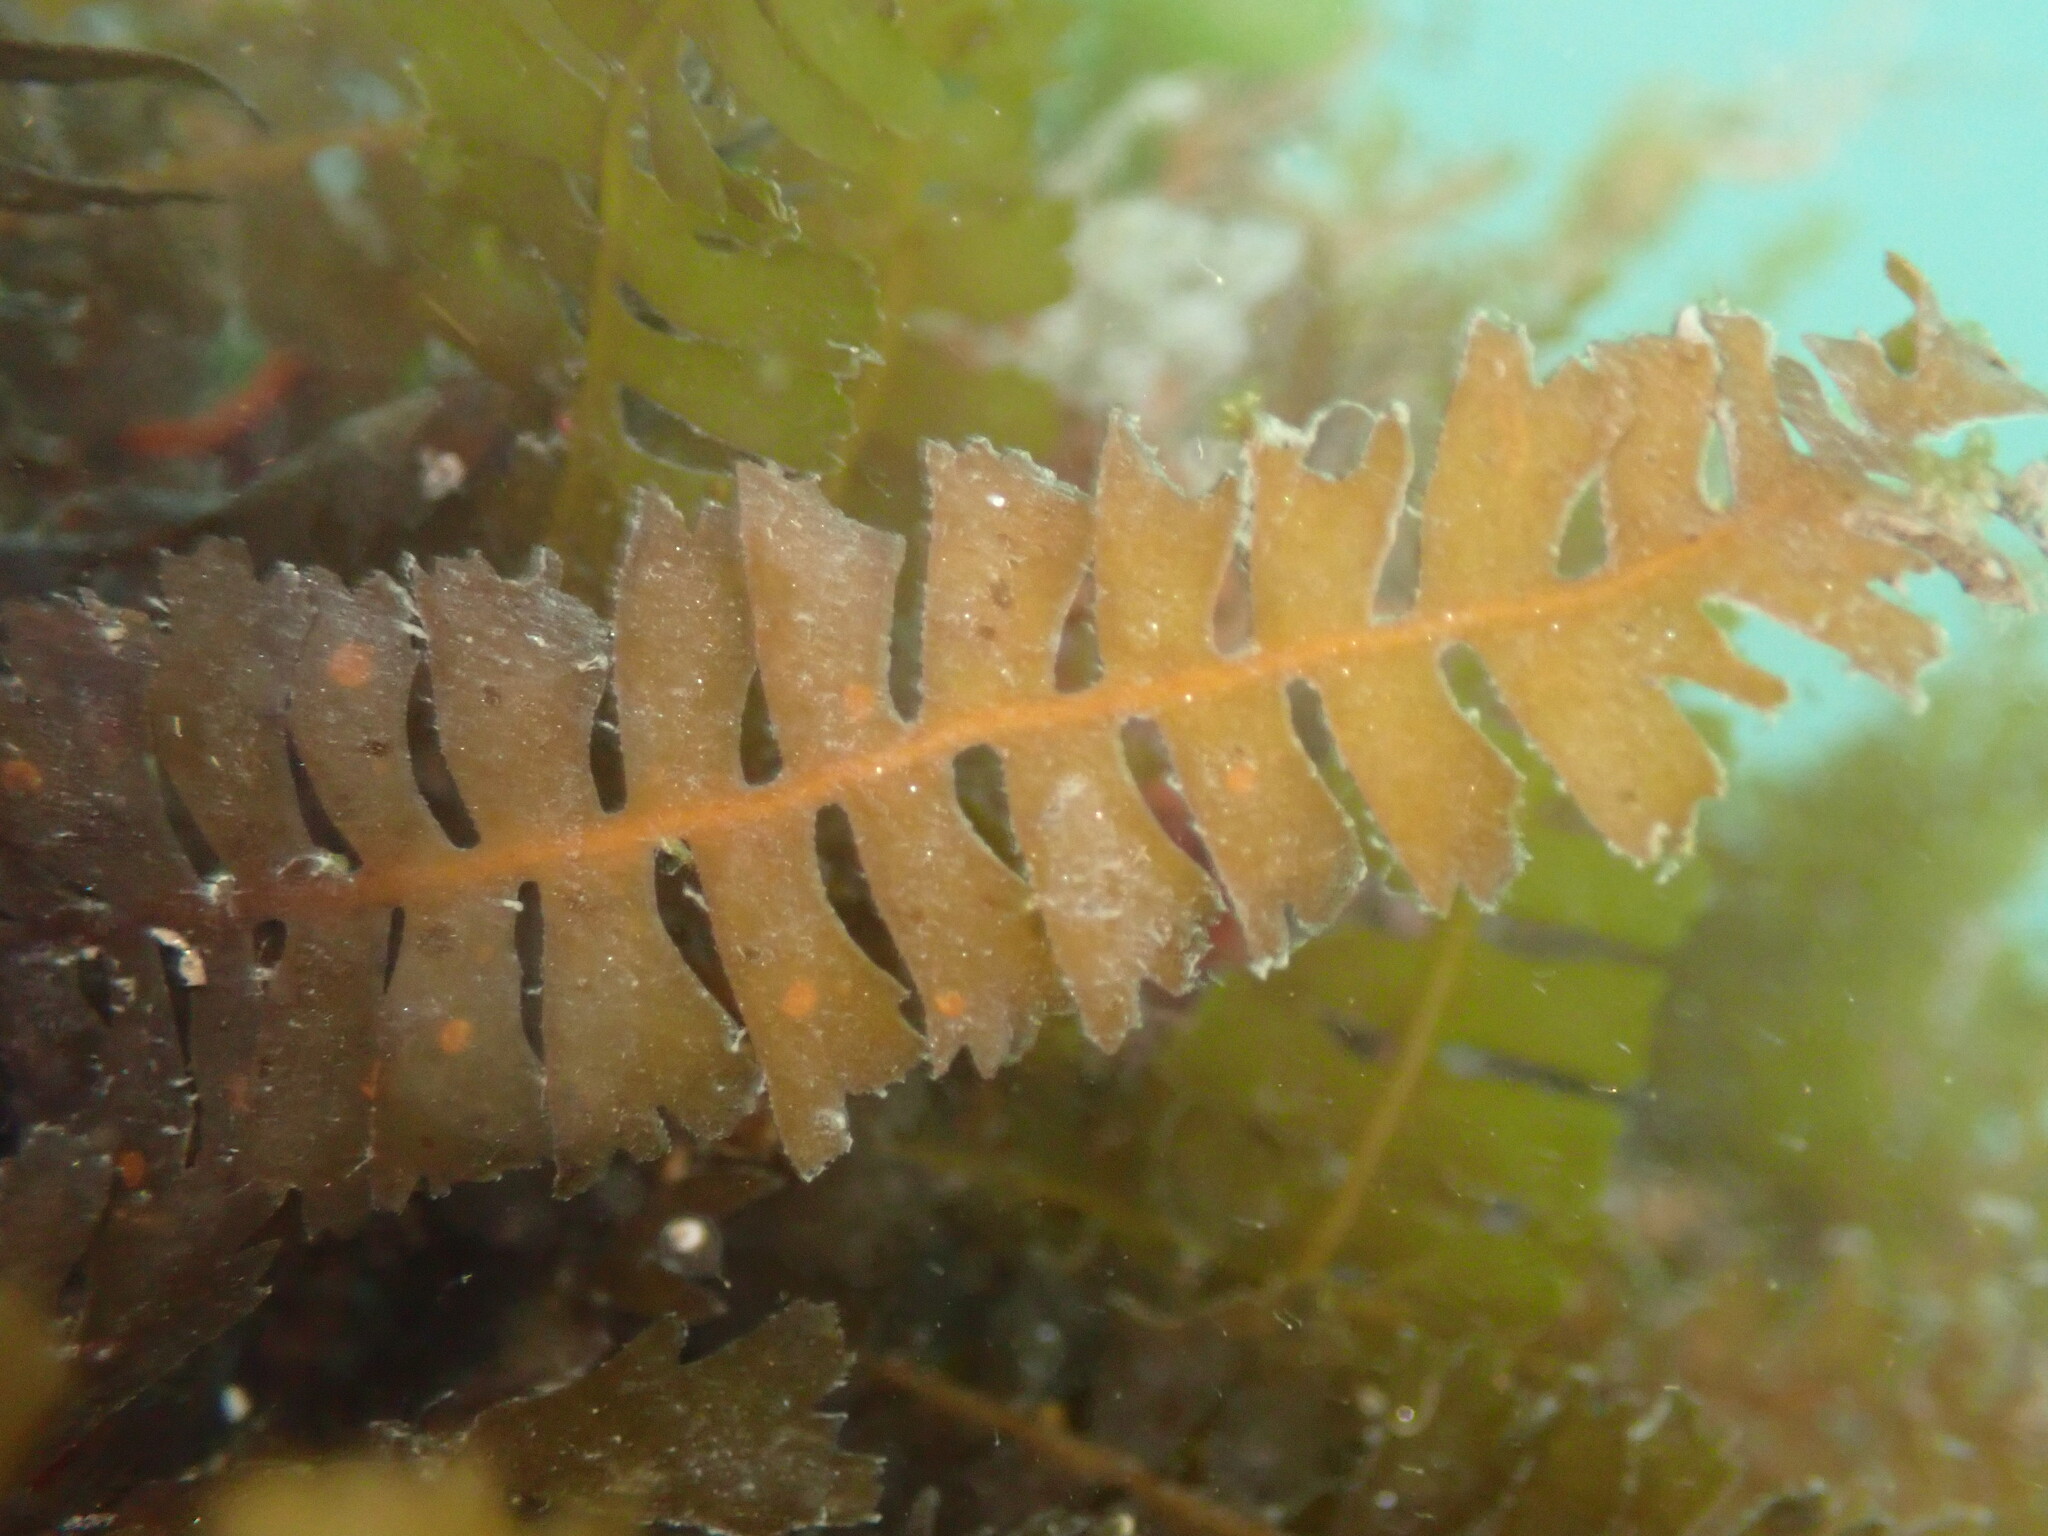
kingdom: Chromista
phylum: Ochrophyta
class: Phaeophyceae
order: Fucales
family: Sargassaceae
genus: Sargassum
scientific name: Sargassum horneri
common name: Devil weed
